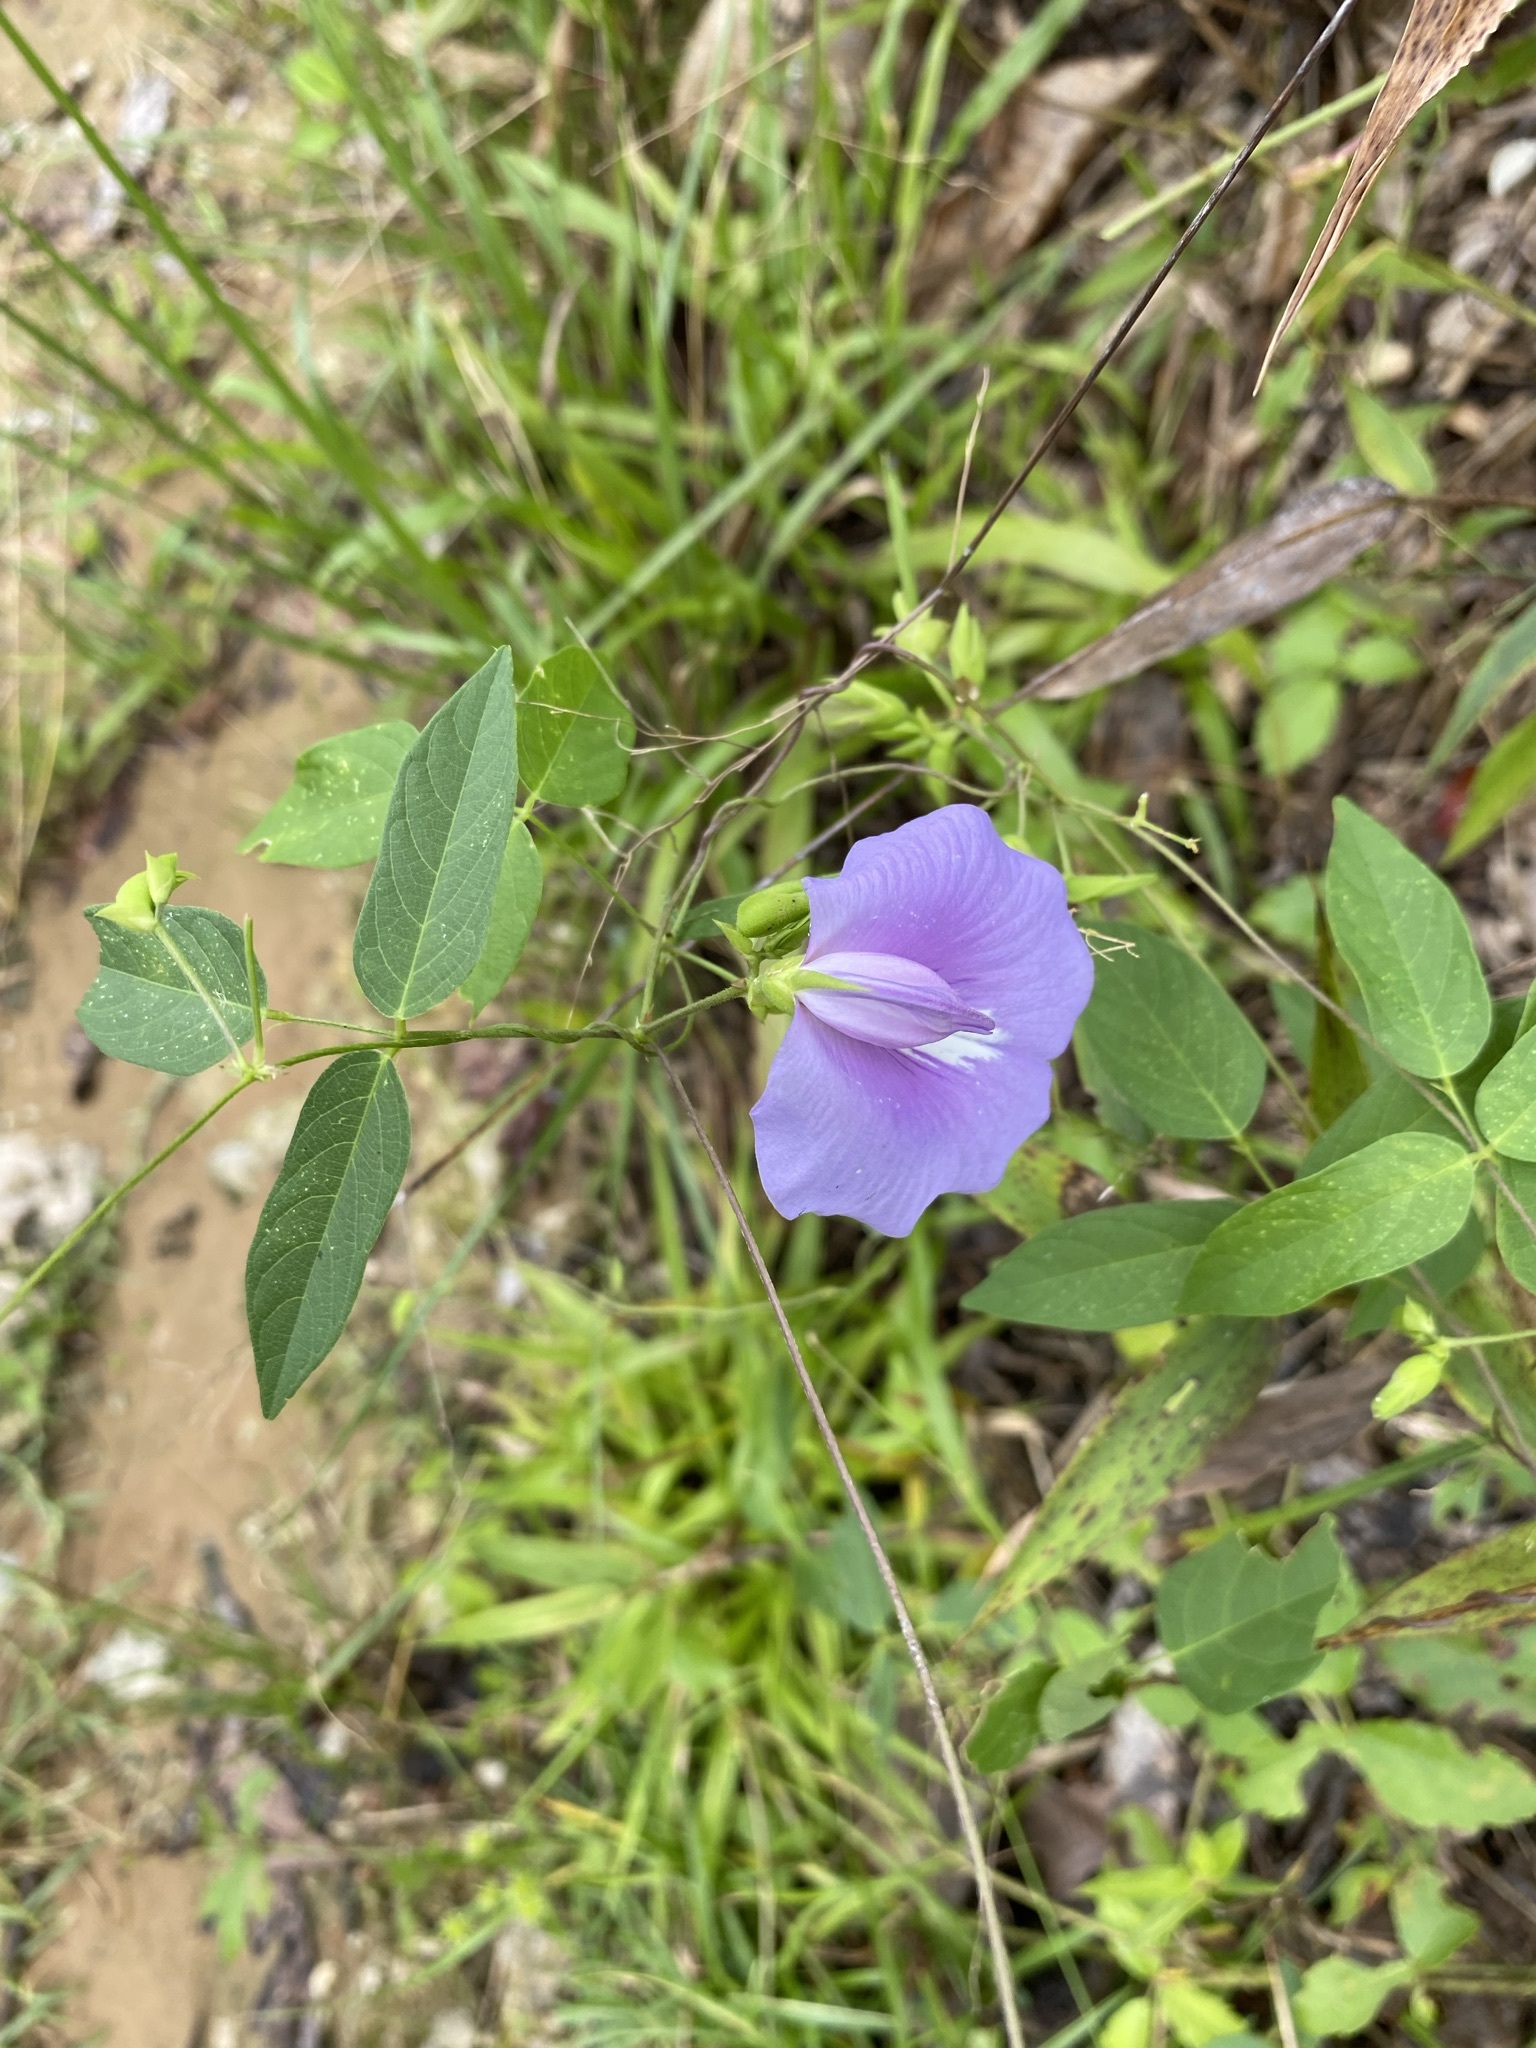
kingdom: Plantae
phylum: Tracheophyta
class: Magnoliopsida
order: Fabales
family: Fabaceae
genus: Centrosema
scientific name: Centrosema virginianum
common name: Butterfly-pea
